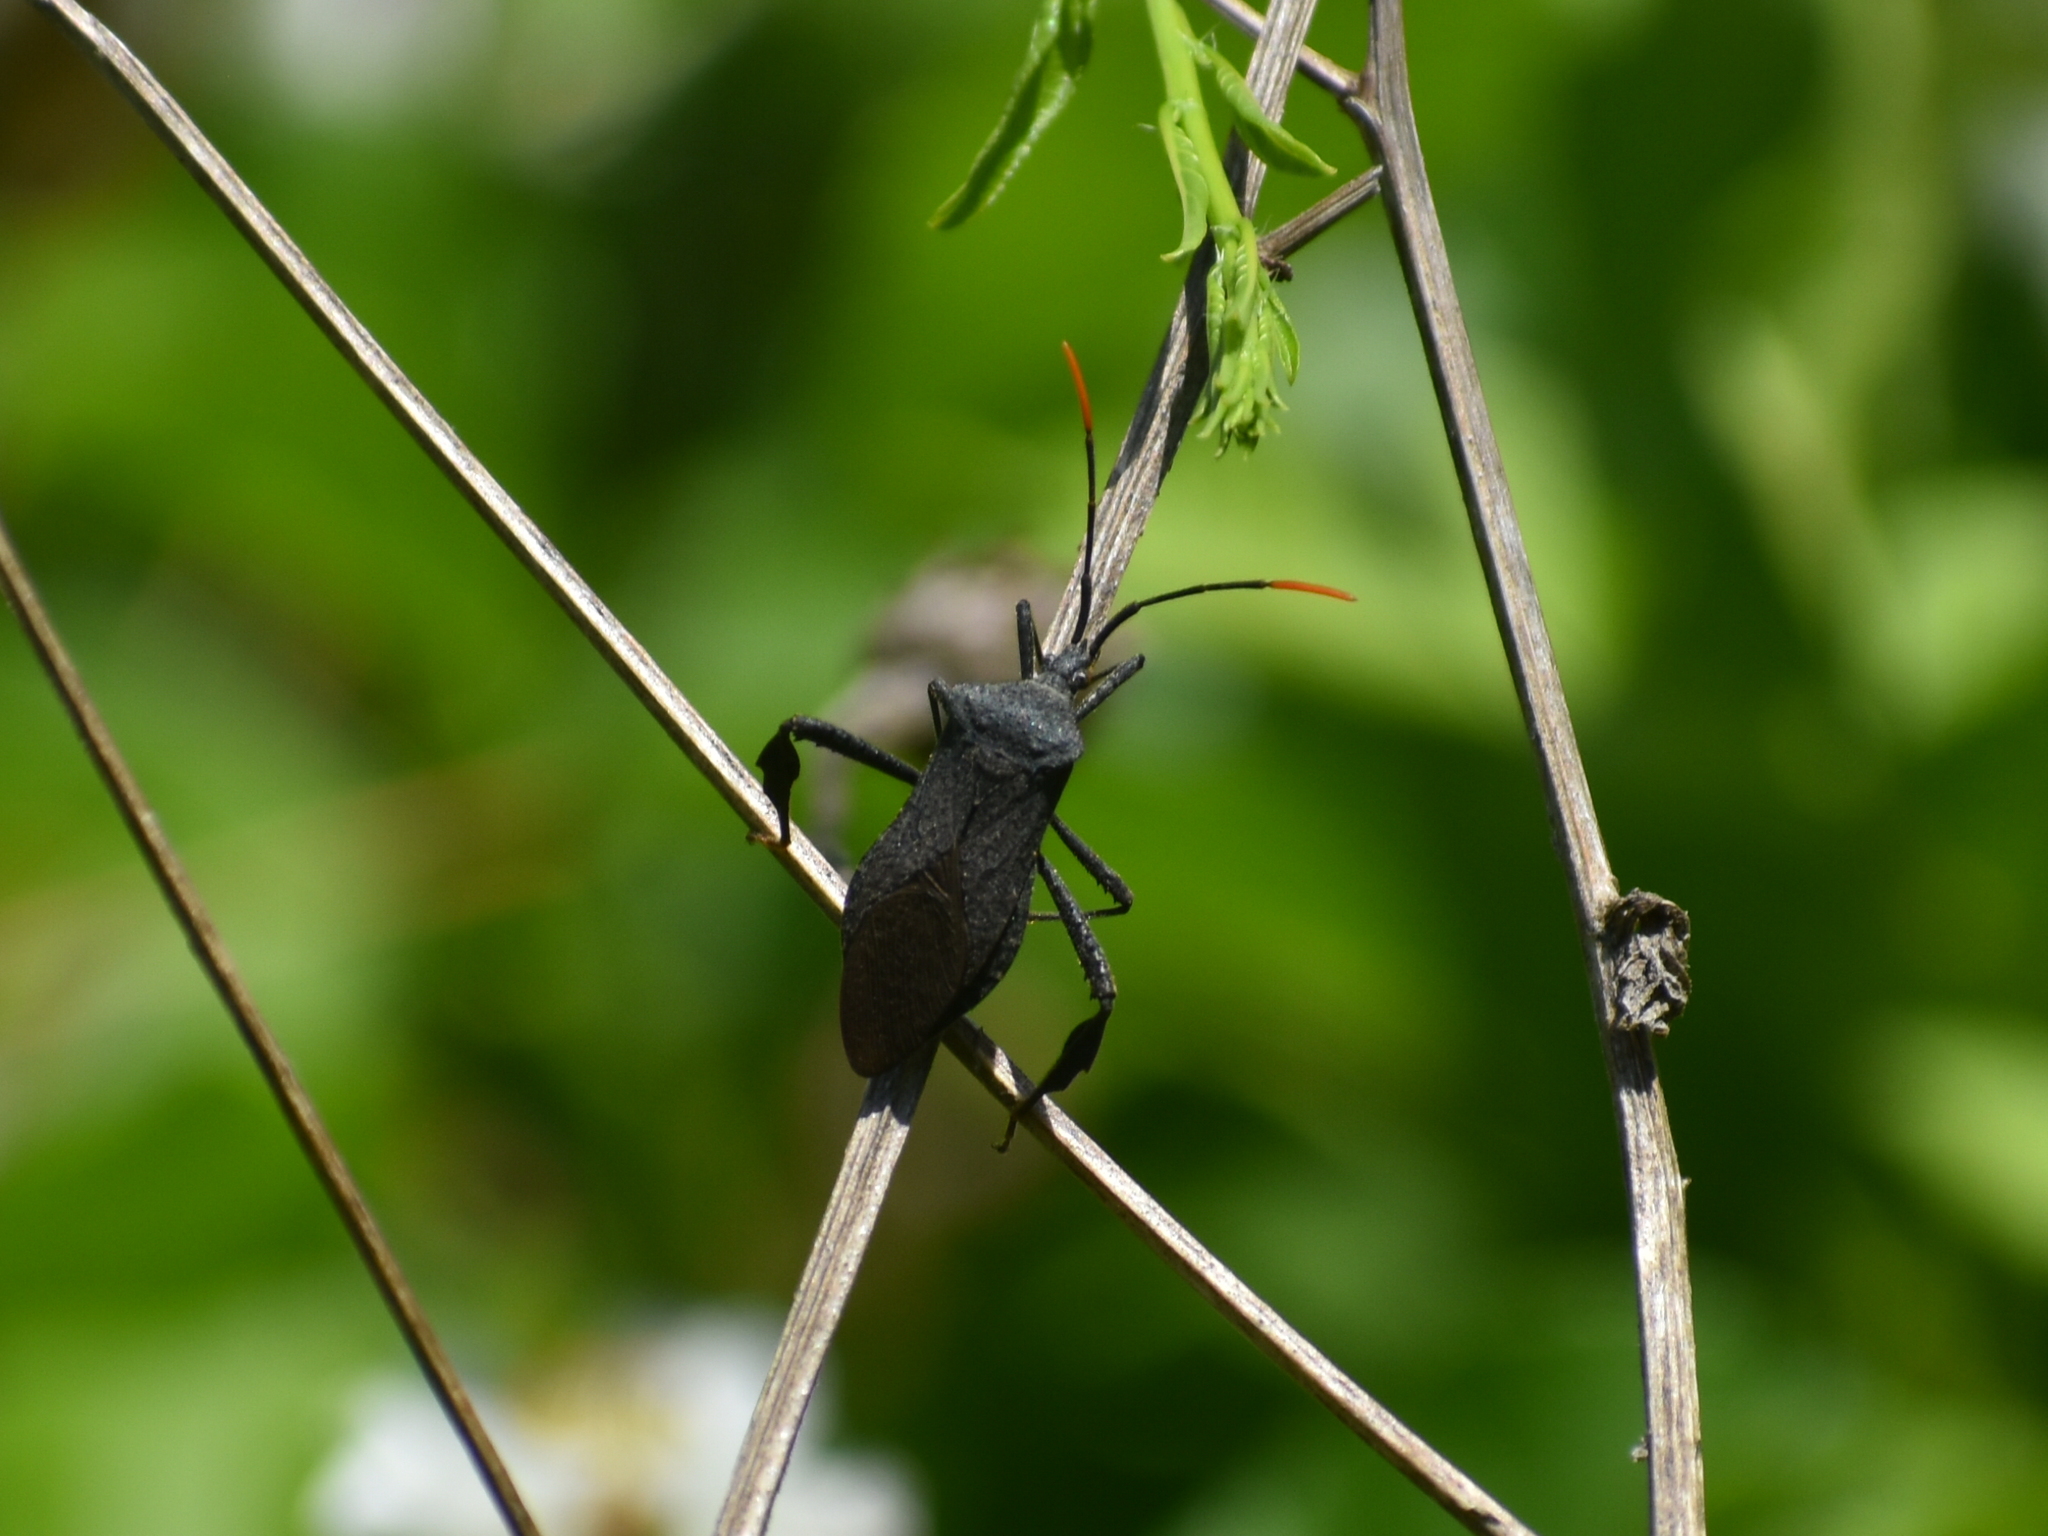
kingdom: Animalia
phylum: Arthropoda
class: Insecta
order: Hemiptera
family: Coreidae
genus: Acanthocephala
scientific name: Acanthocephala terminalis
